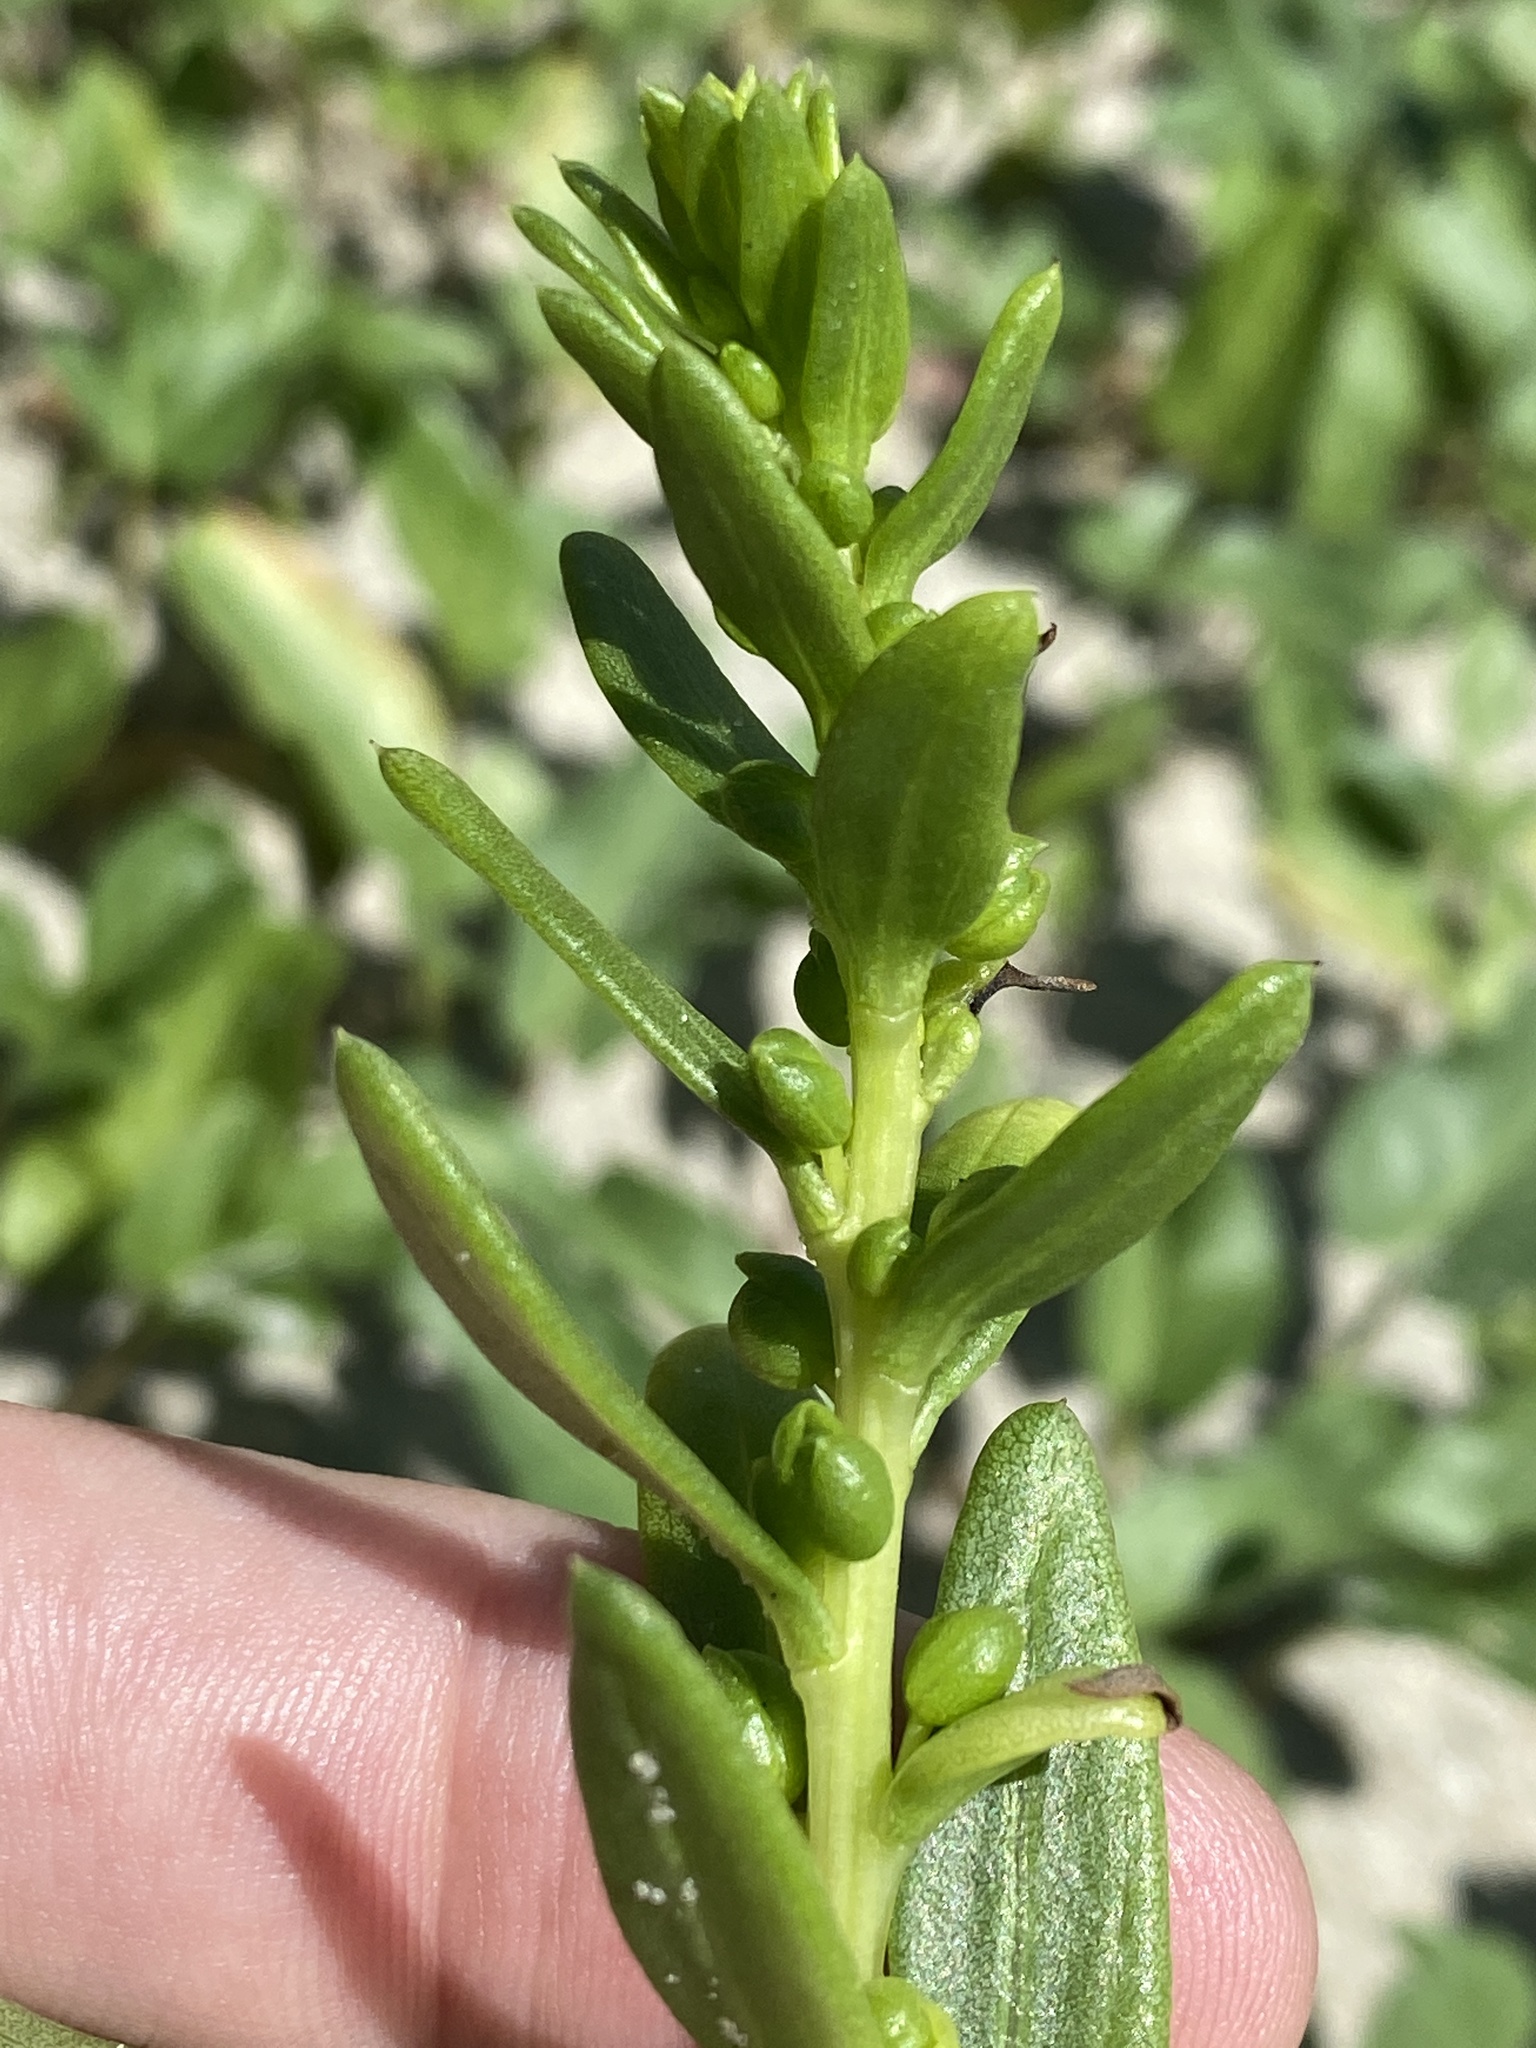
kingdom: Plantae
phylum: Tracheophyta
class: Magnoliopsida
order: Asterales
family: Asteraceae
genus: Iva
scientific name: Iva imbricata
